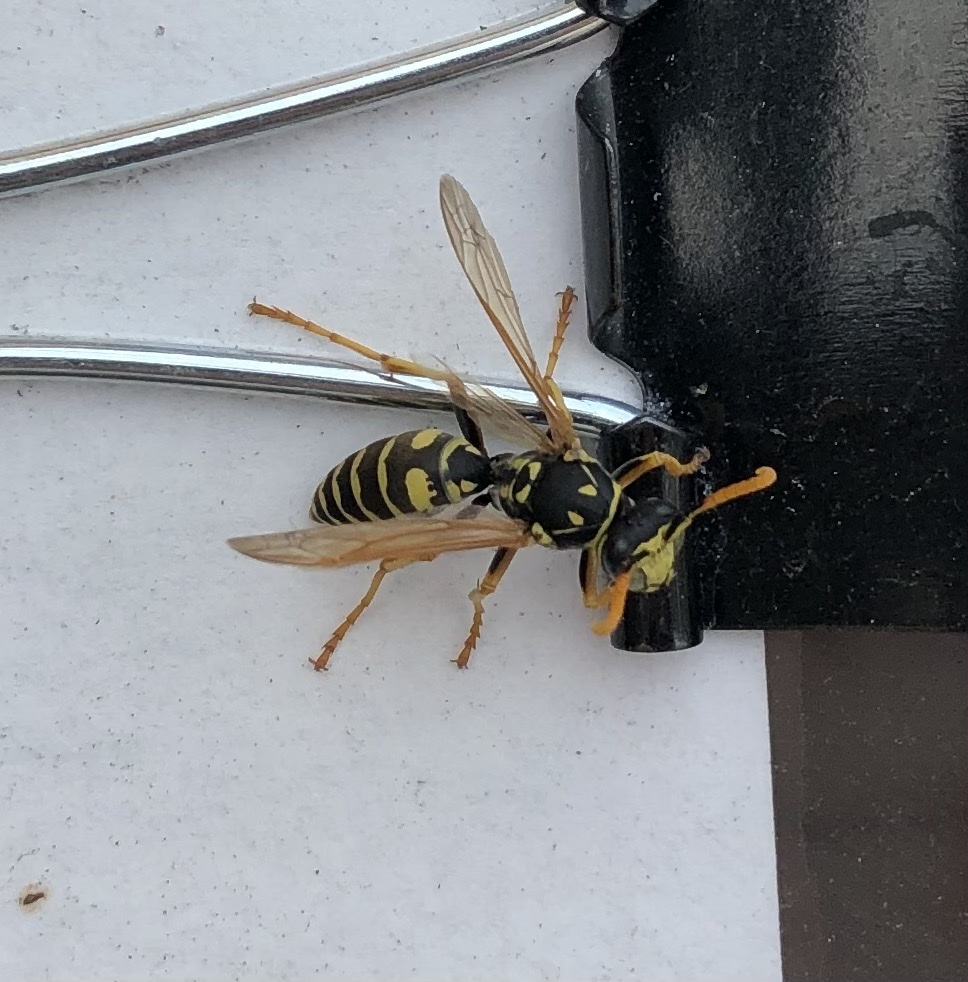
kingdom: Animalia
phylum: Arthropoda
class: Insecta
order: Hymenoptera
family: Eumenidae
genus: Polistes
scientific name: Polistes dominula
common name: Paper wasp
